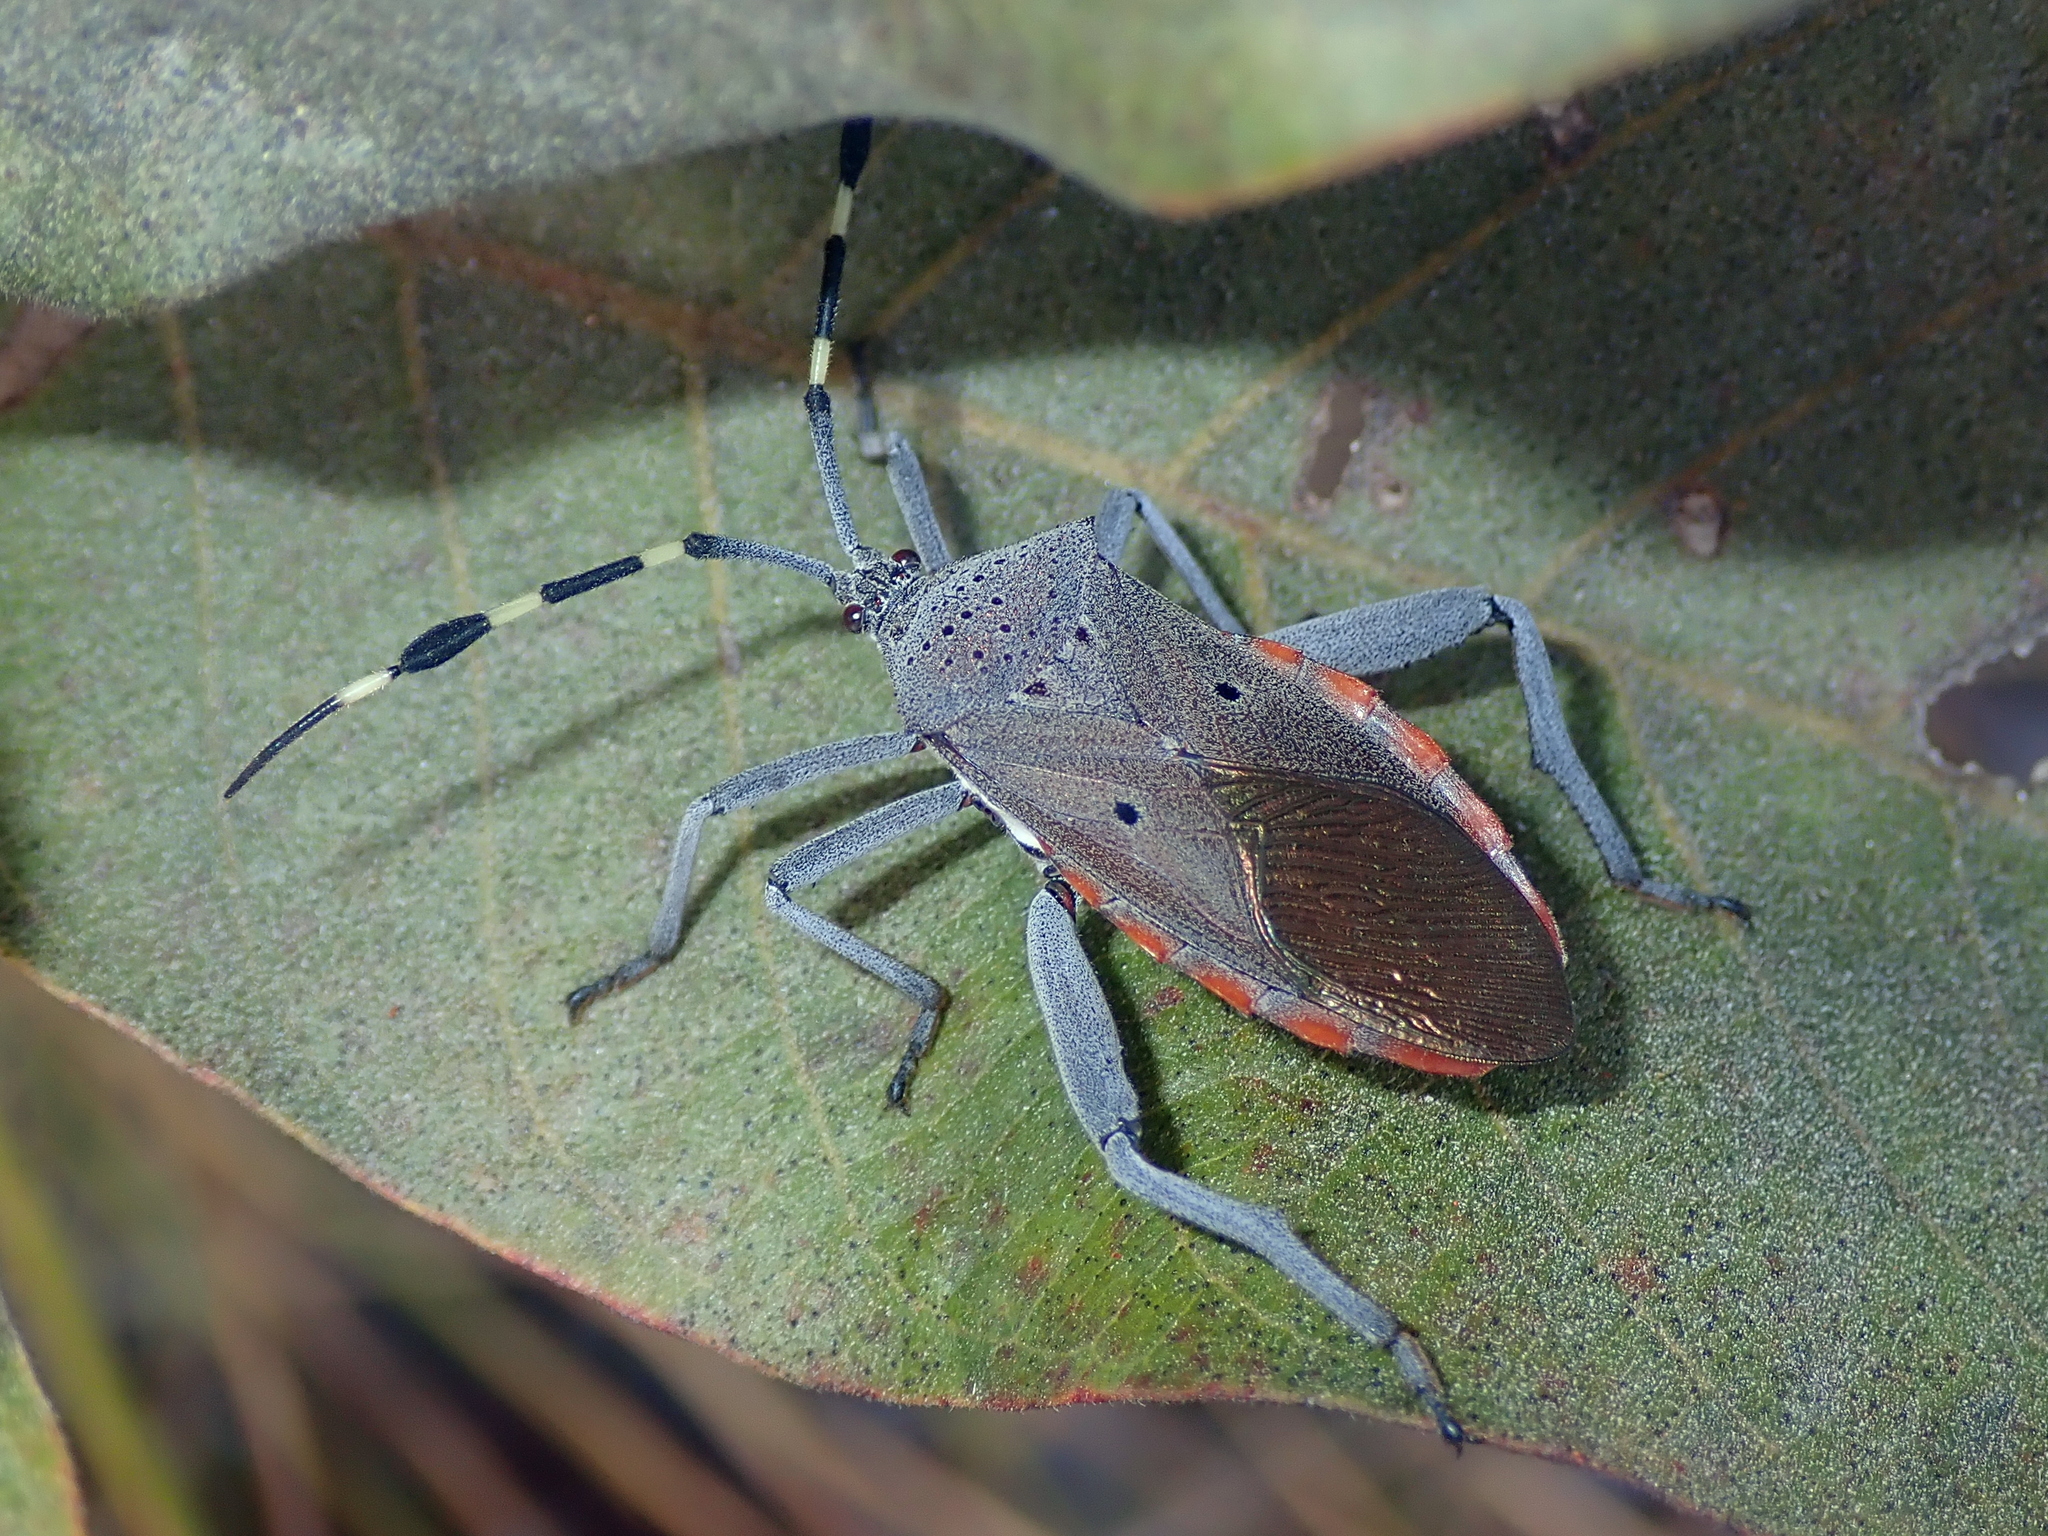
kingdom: Animalia
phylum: Arthropoda
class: Insecta
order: Hemiptera
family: Coreidae
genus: Molchina
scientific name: Molchina linnei
